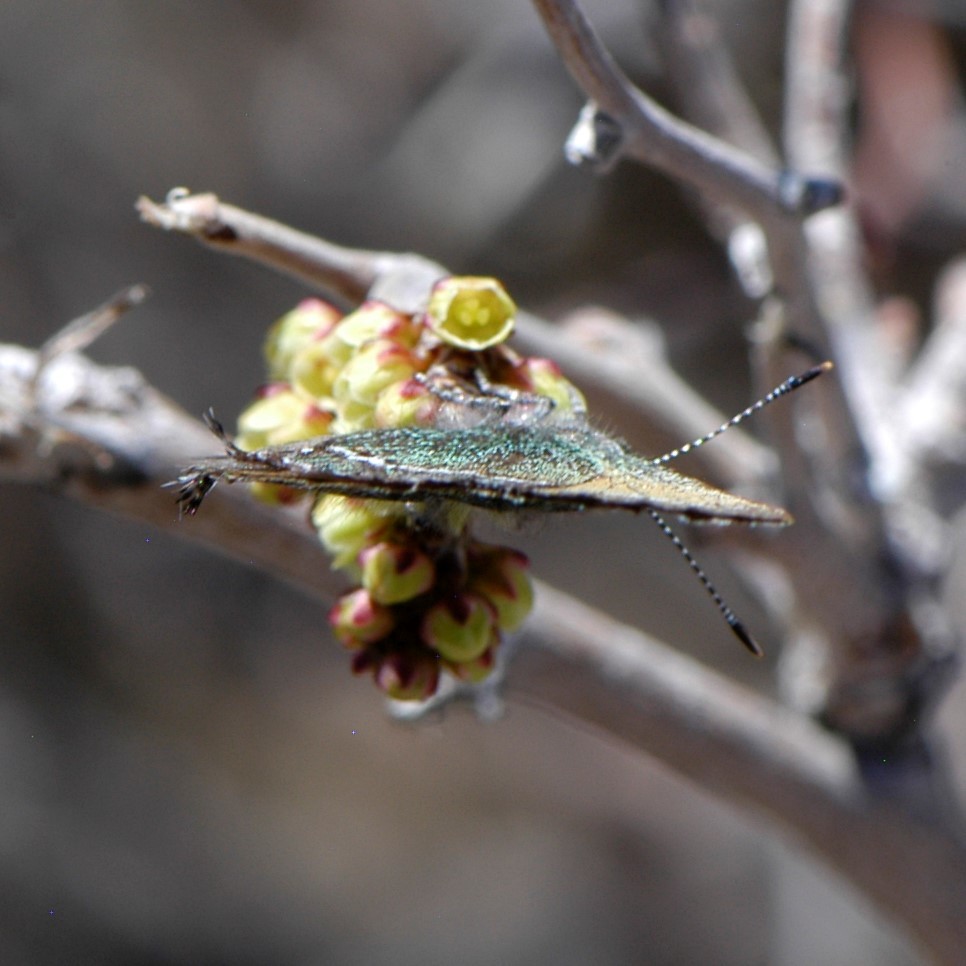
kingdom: Animalia
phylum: Arthropoda
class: Insecta
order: Lepidoptera
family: Lycaenidae
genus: Sandia
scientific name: Sandia mcfarlandi
